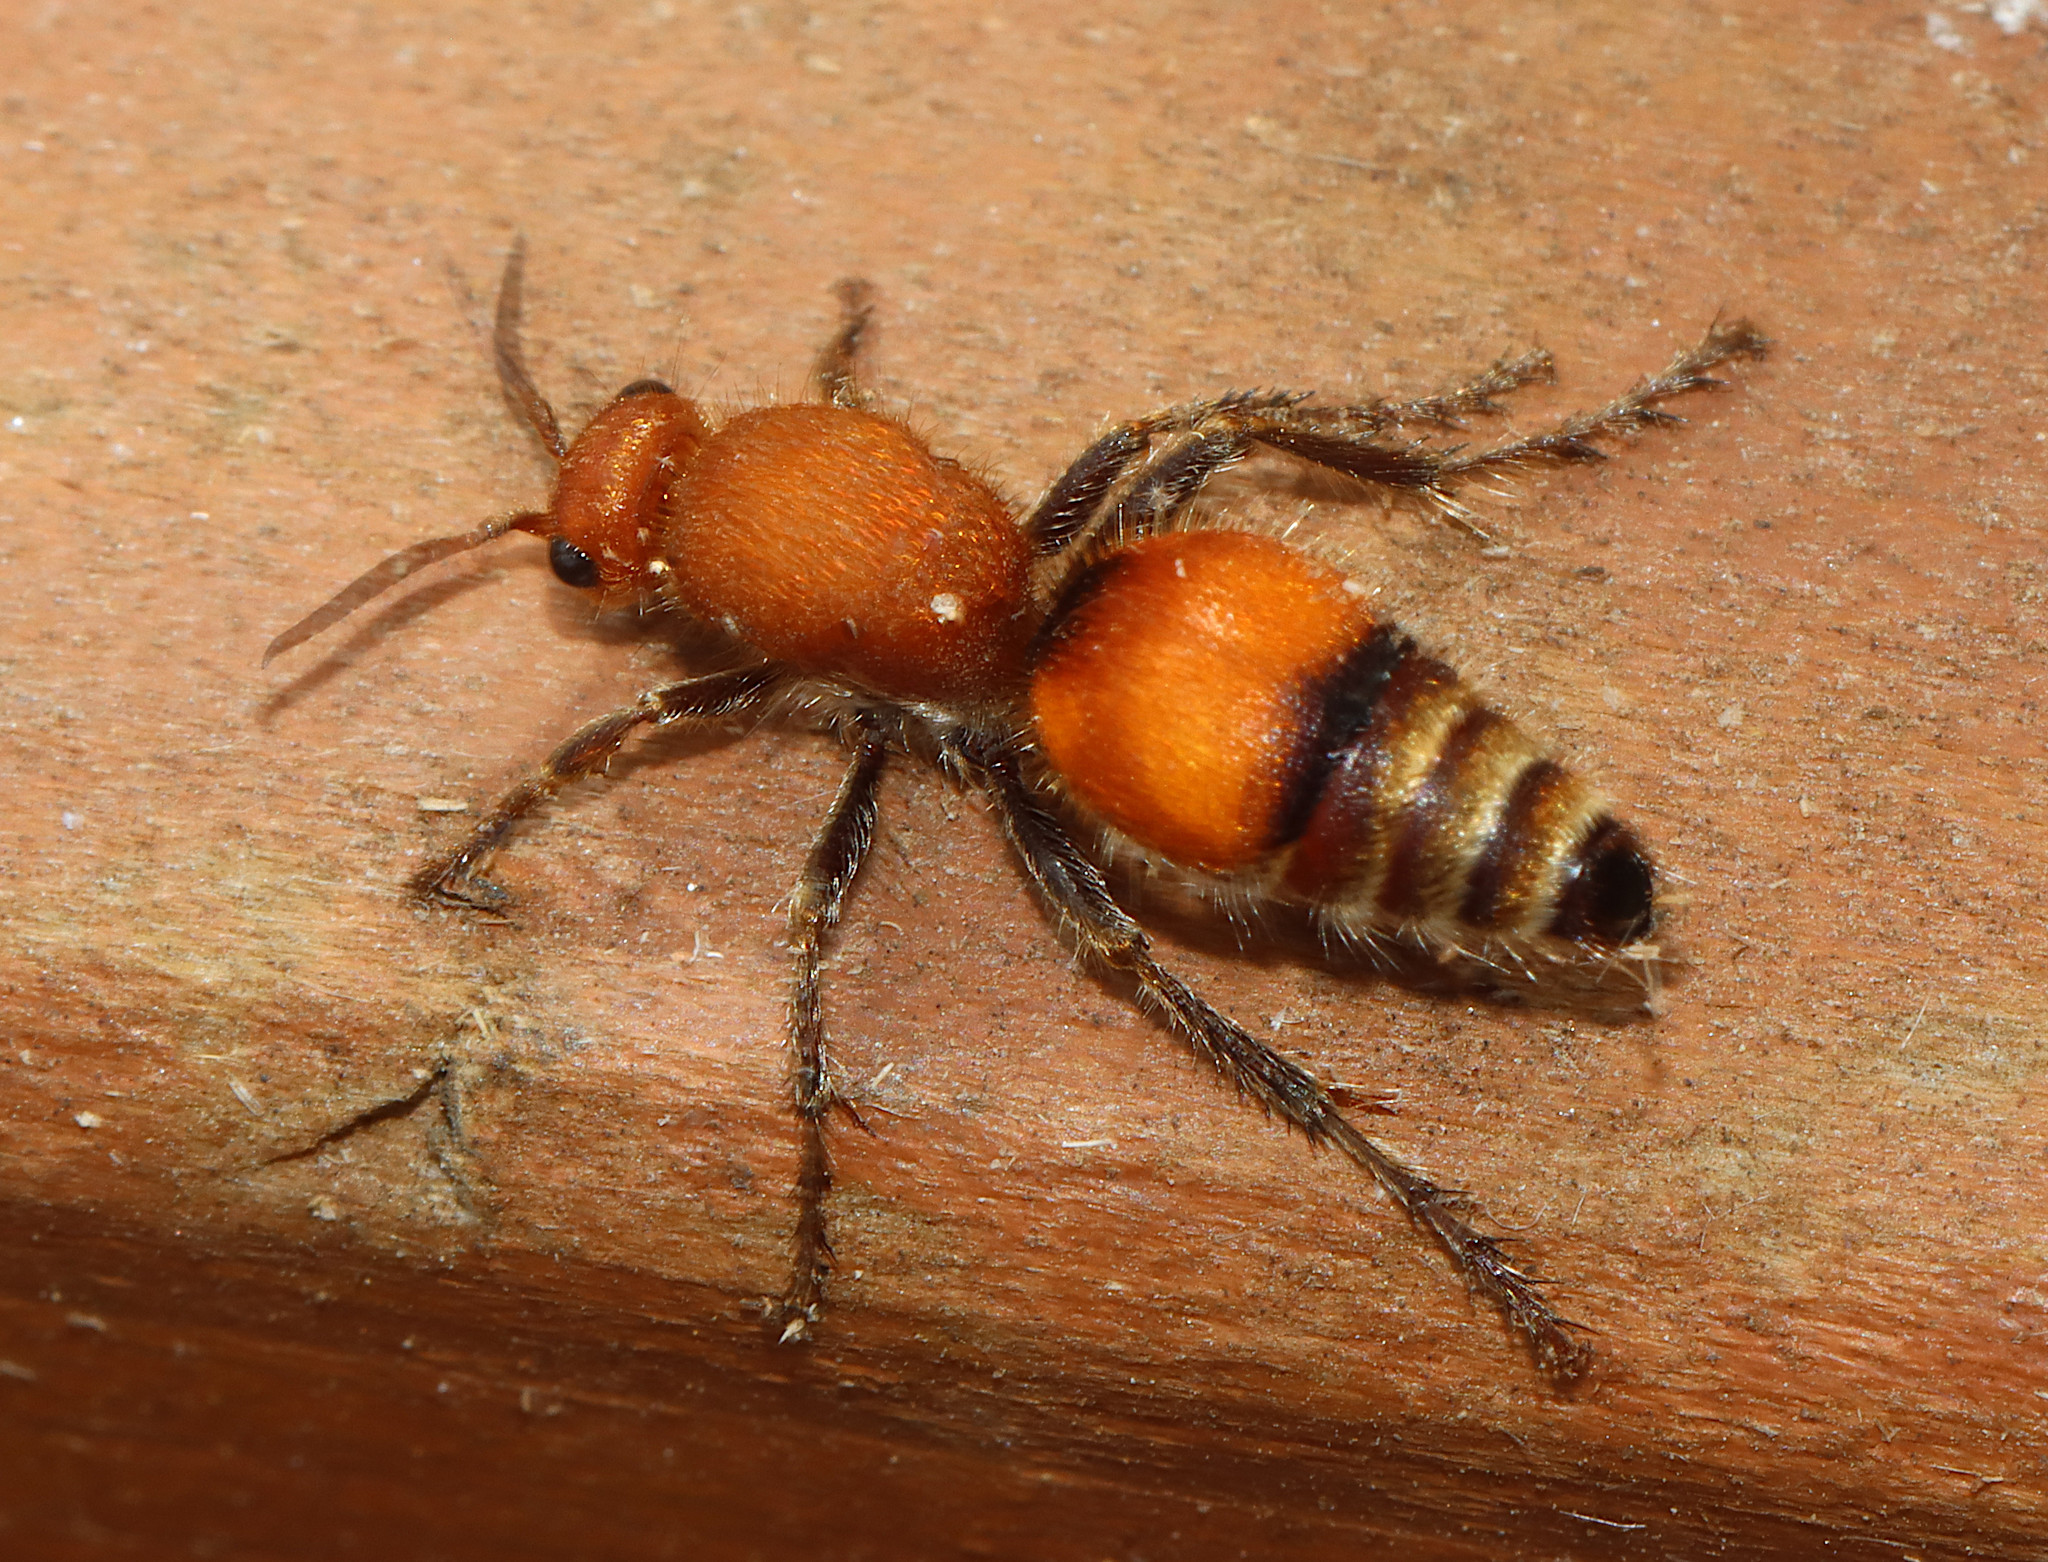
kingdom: Animalia
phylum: Arthropoda
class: Insecta
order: Hymenoptera
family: Mutillidae
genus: Dasymutilla
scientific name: Dasymutilla
